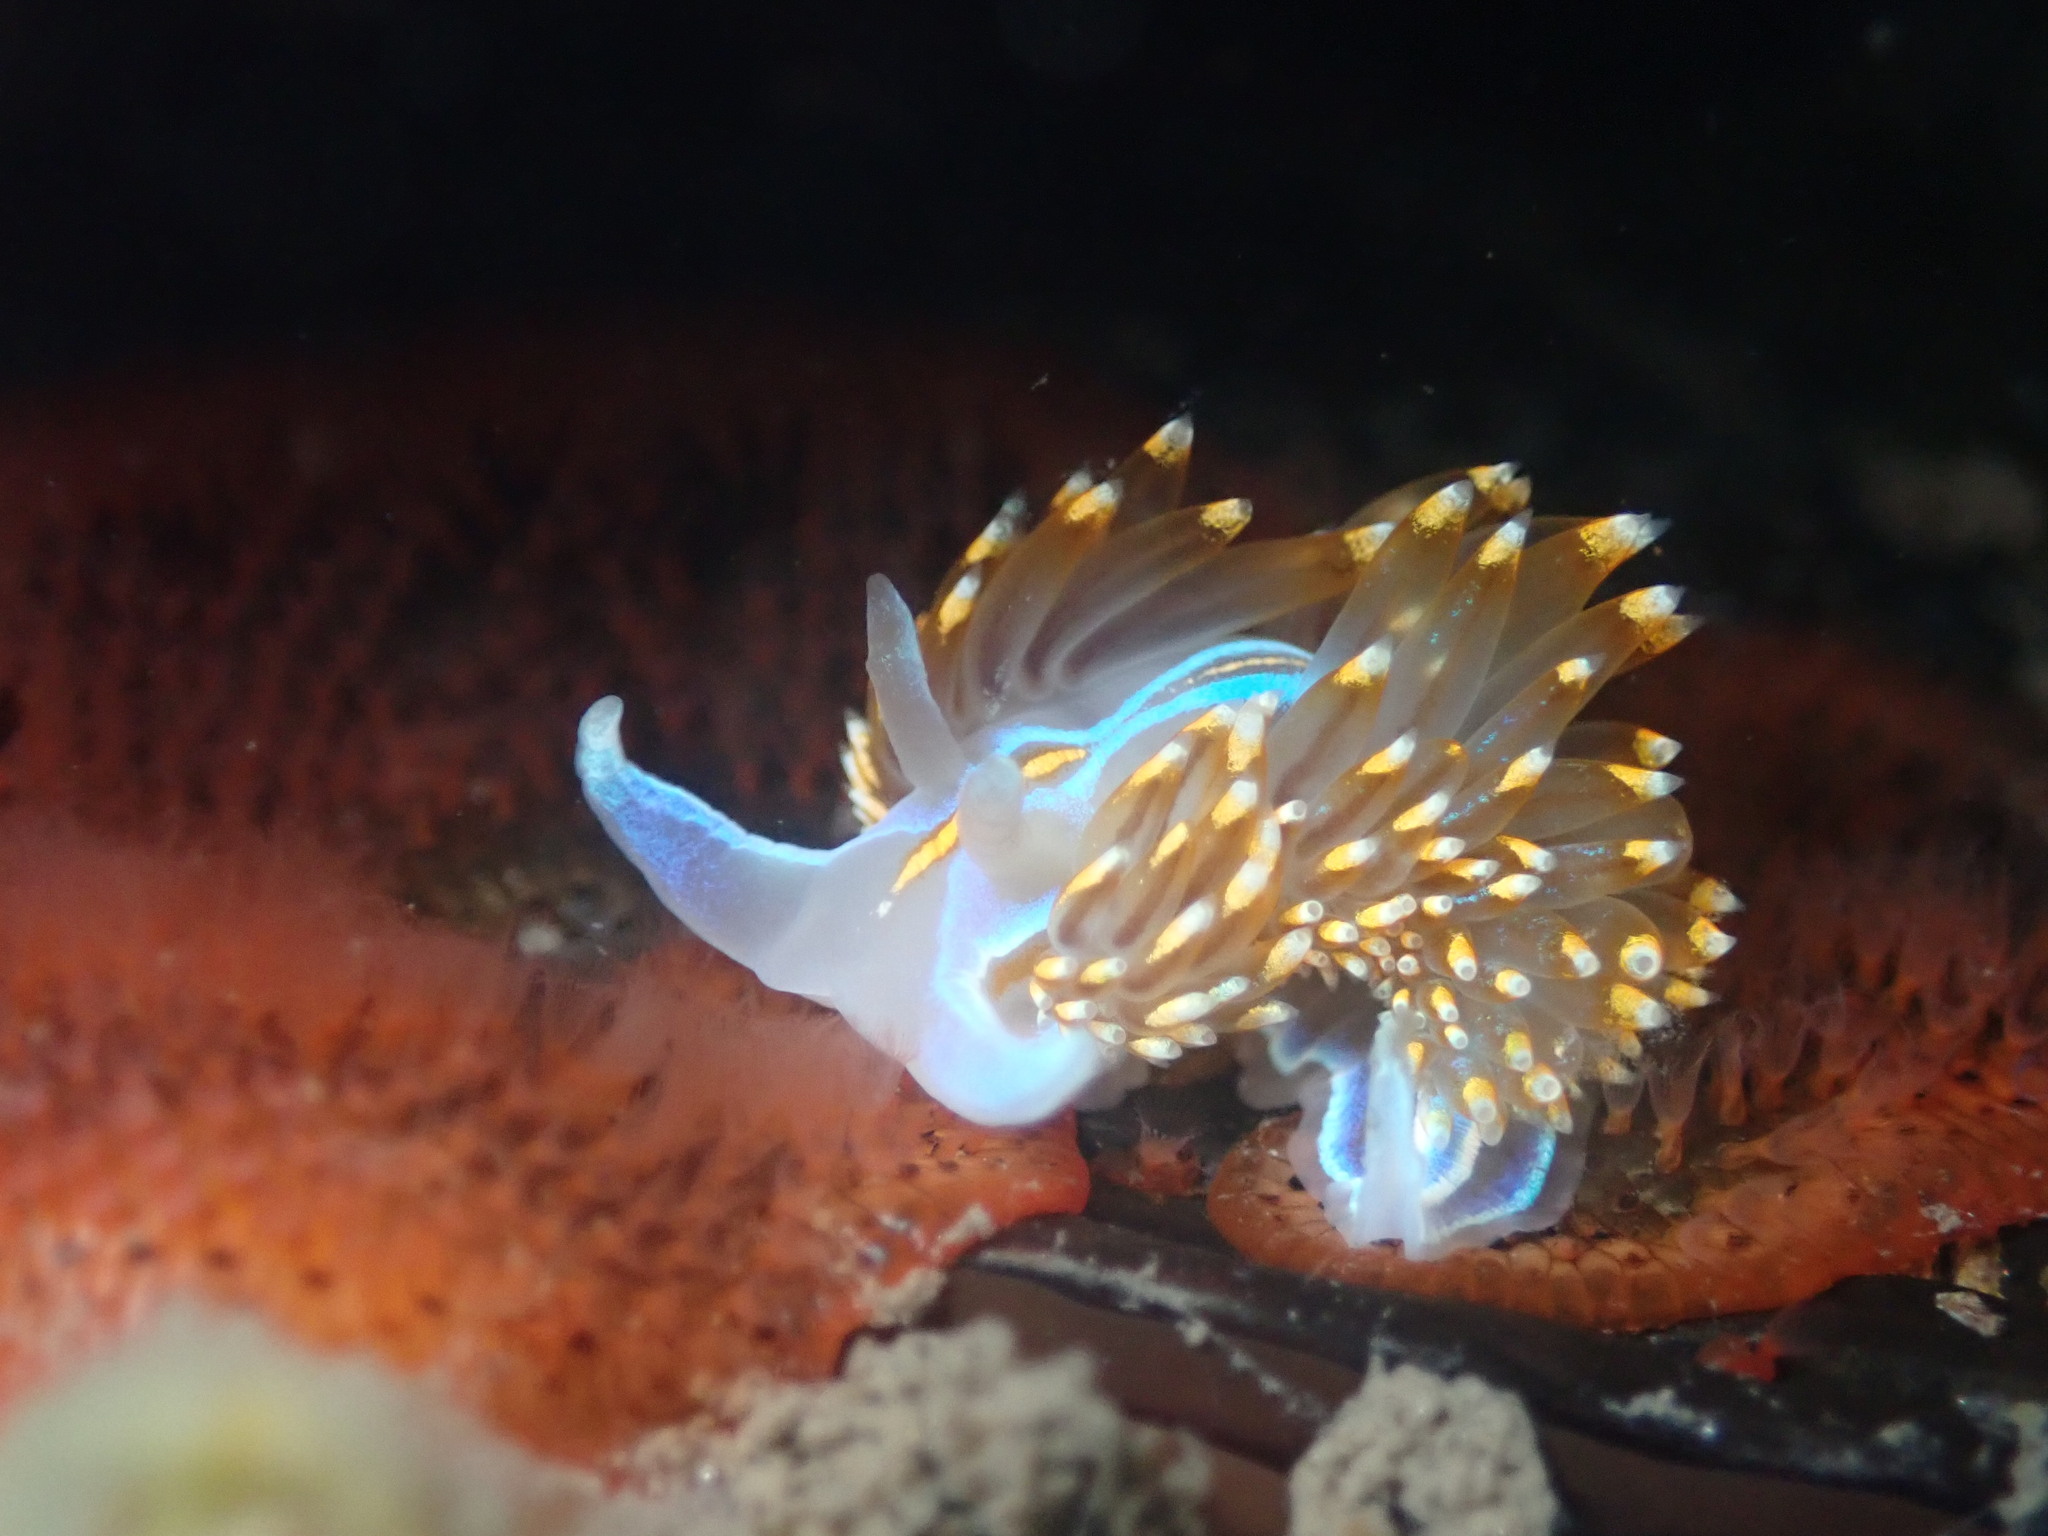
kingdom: Animalia
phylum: Mollusca
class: Gastropoda
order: Nudibranchia
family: Myrrhinidae
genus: Hermissenda
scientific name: Hermissenda opalescens
